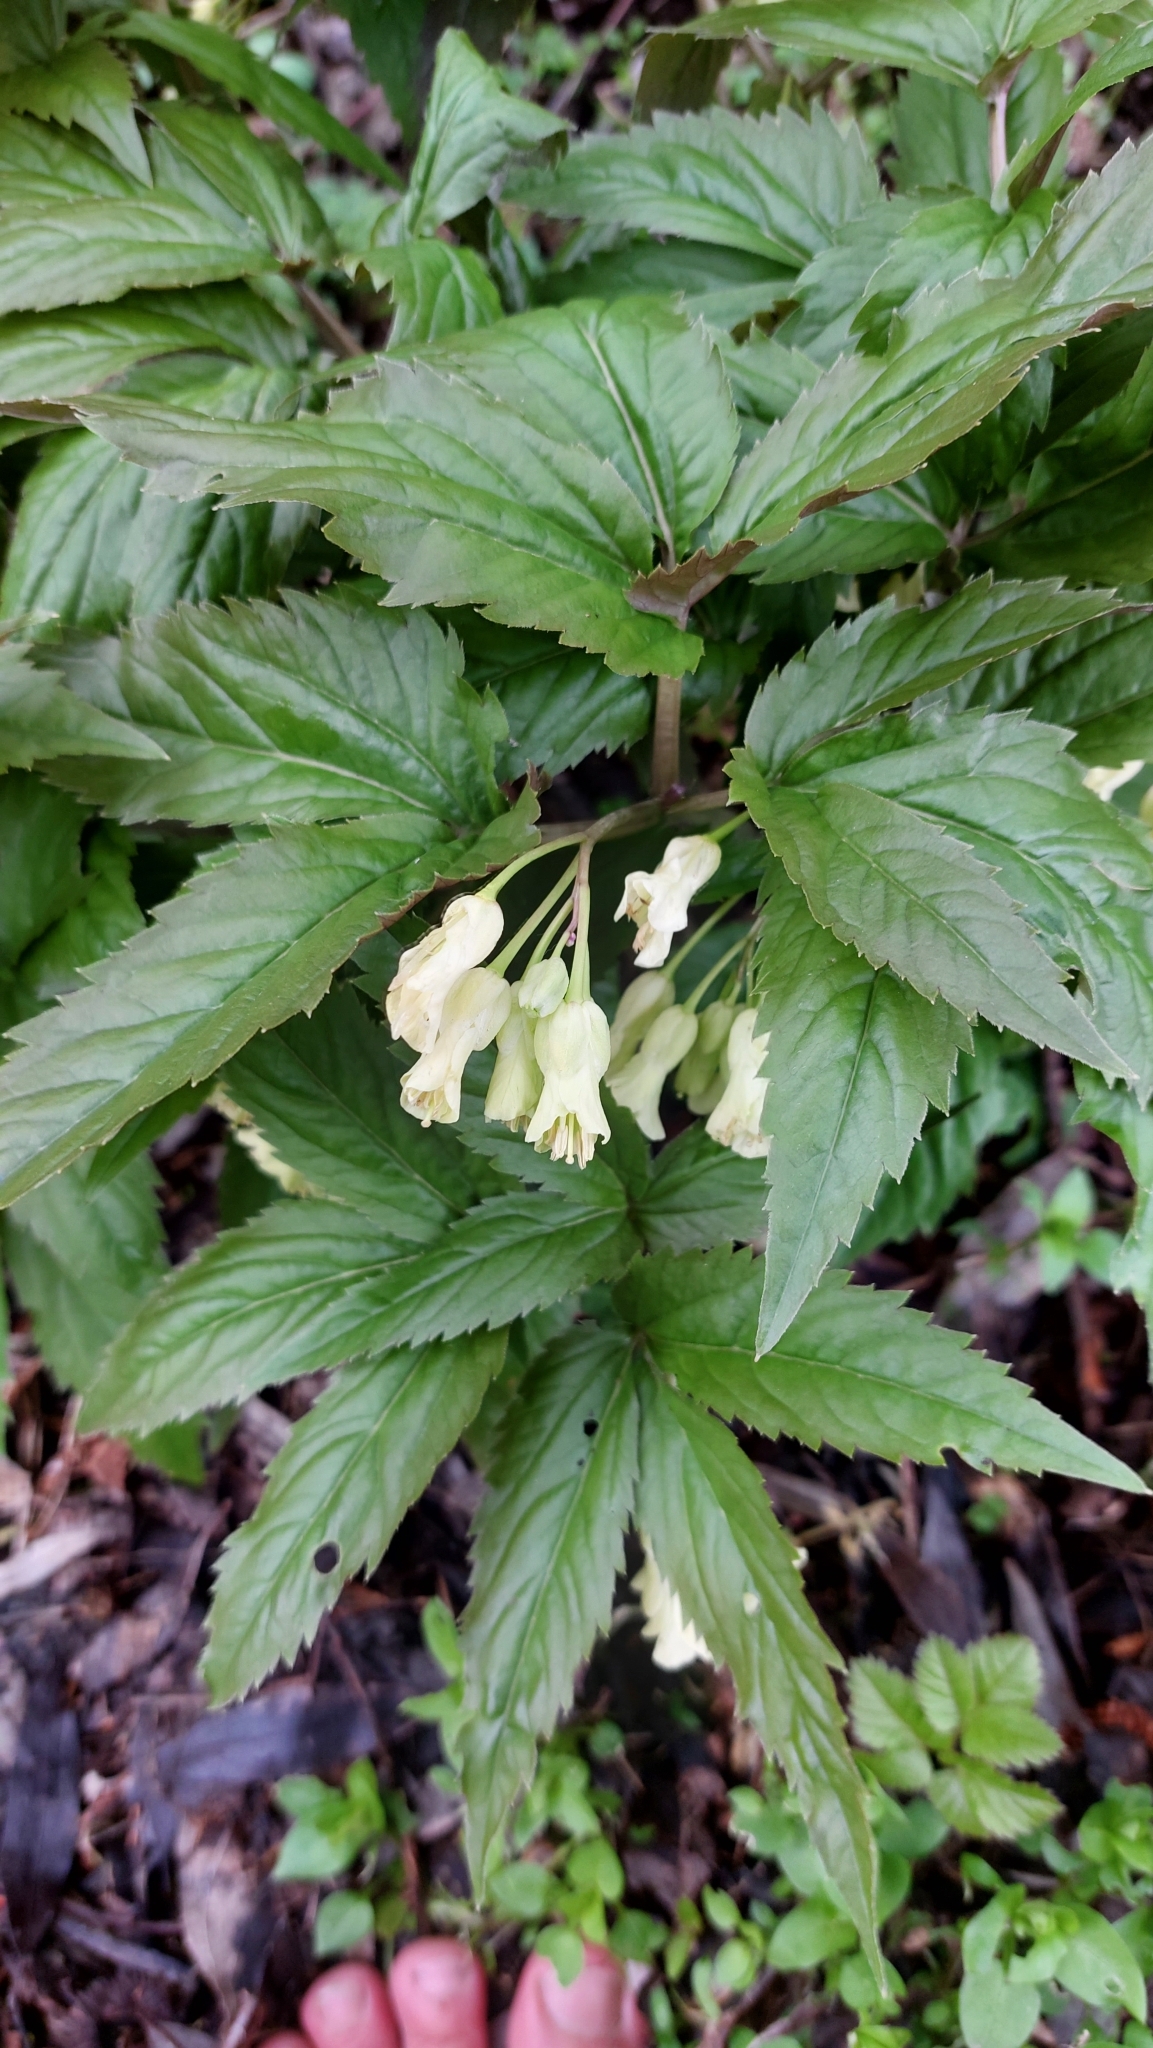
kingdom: Plantae
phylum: Tracheophyta
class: Magnoliopsida
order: Brassicales
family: Brassicaceae
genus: Cardamine
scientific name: Cardamine enneaphyllos
